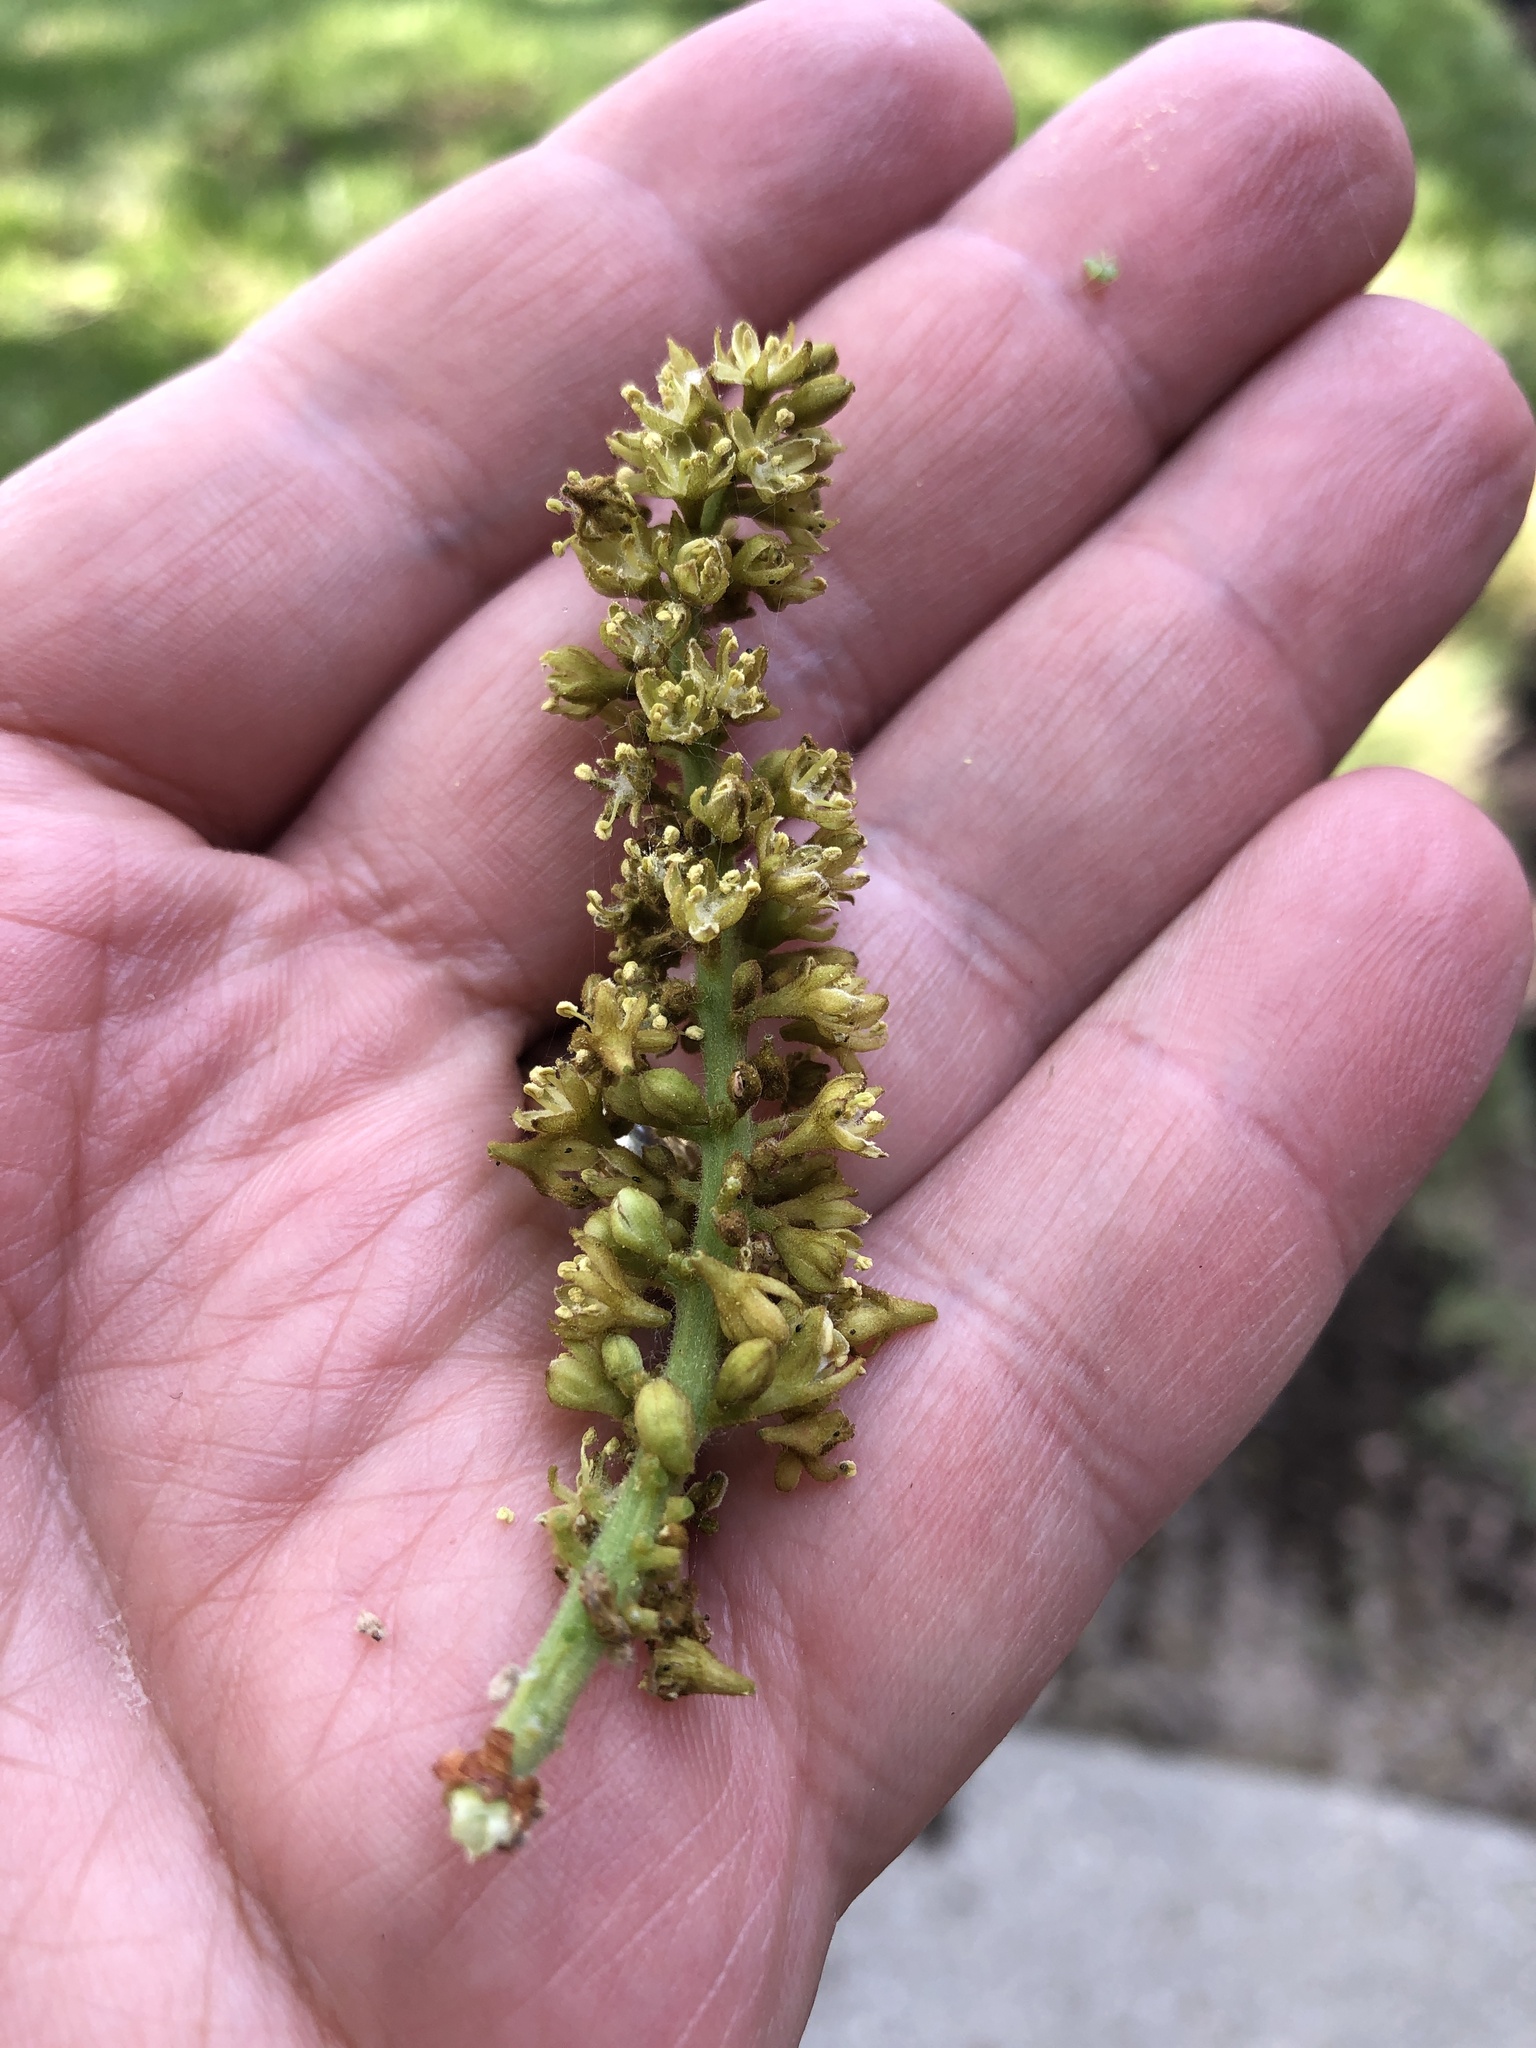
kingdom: Plantae
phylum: Tracheophyta
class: Magnoliopsida
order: Fabales
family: Fabaceae
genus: Gleditsia
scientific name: Gleditsia triacanthos
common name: Common honeylocust
